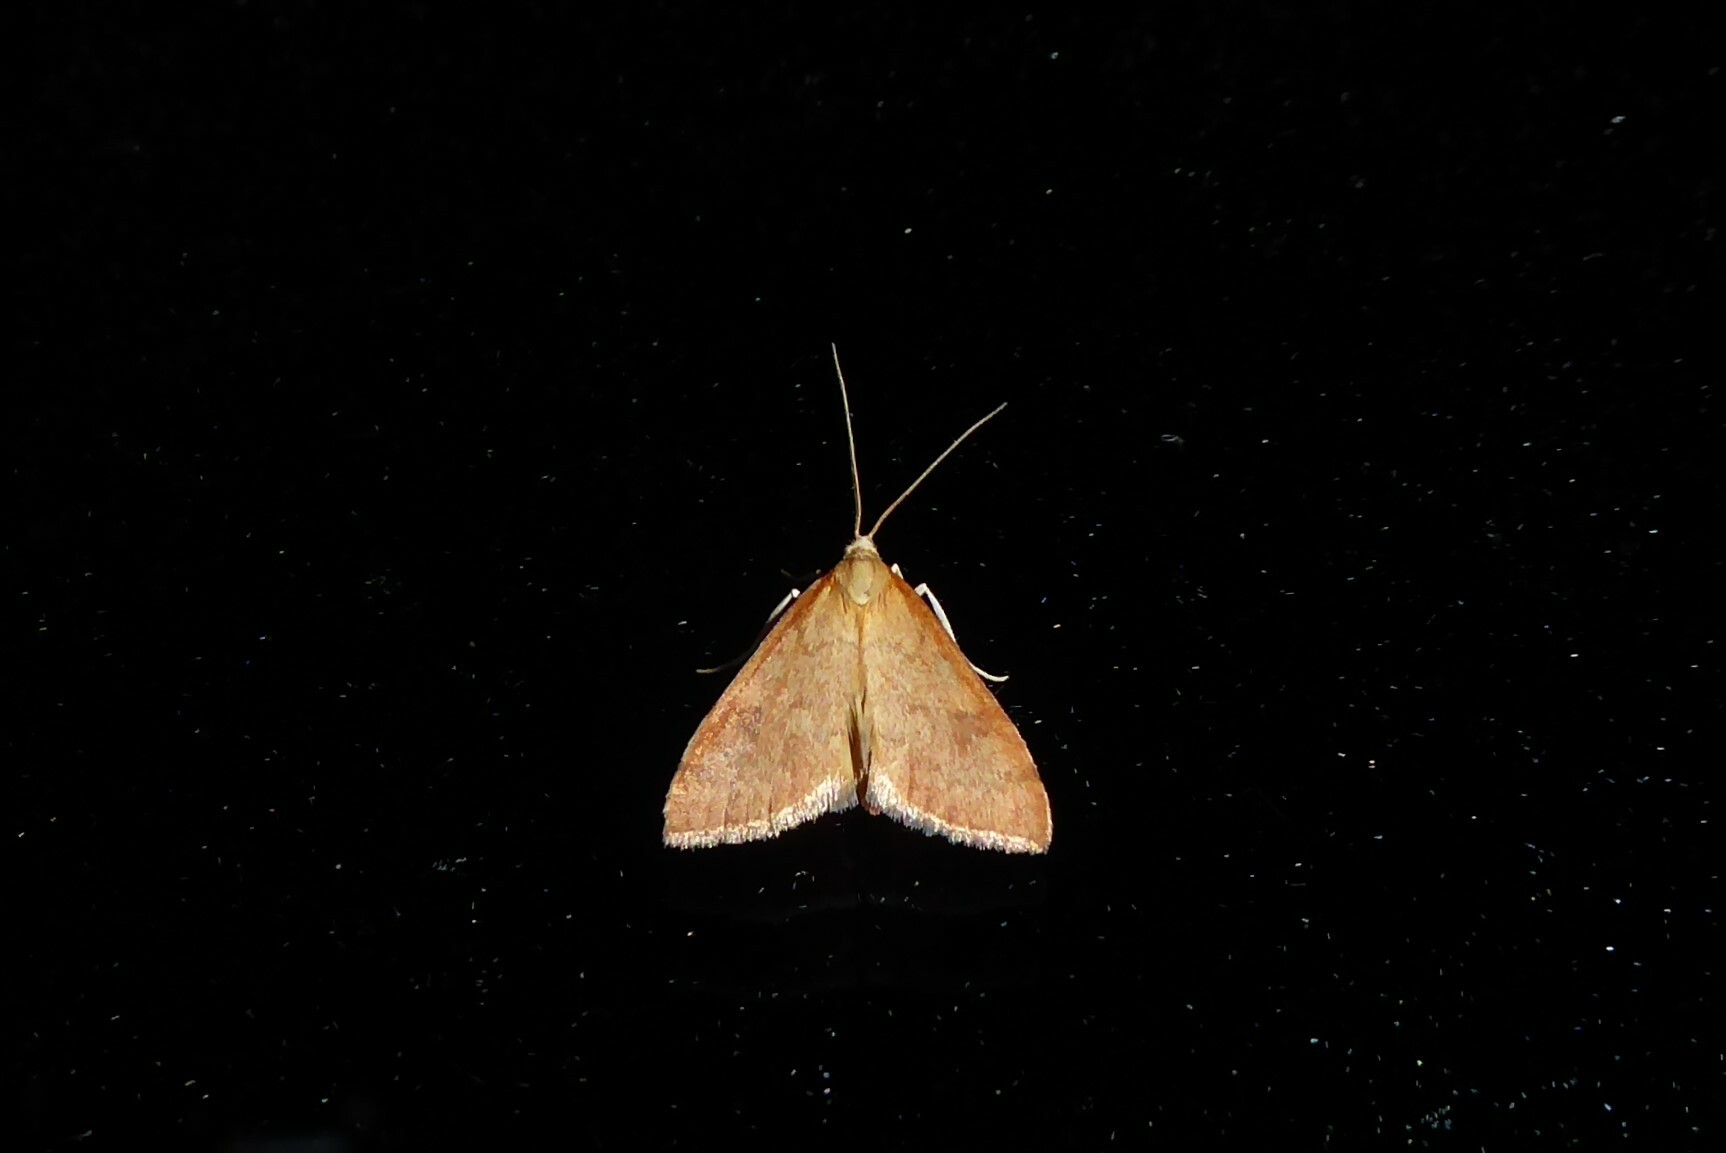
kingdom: Animalia
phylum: Arthropoda
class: Insecta
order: Lepidoptera
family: Crambidae
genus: Udea
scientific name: Udea Mnesictena flavidalis
